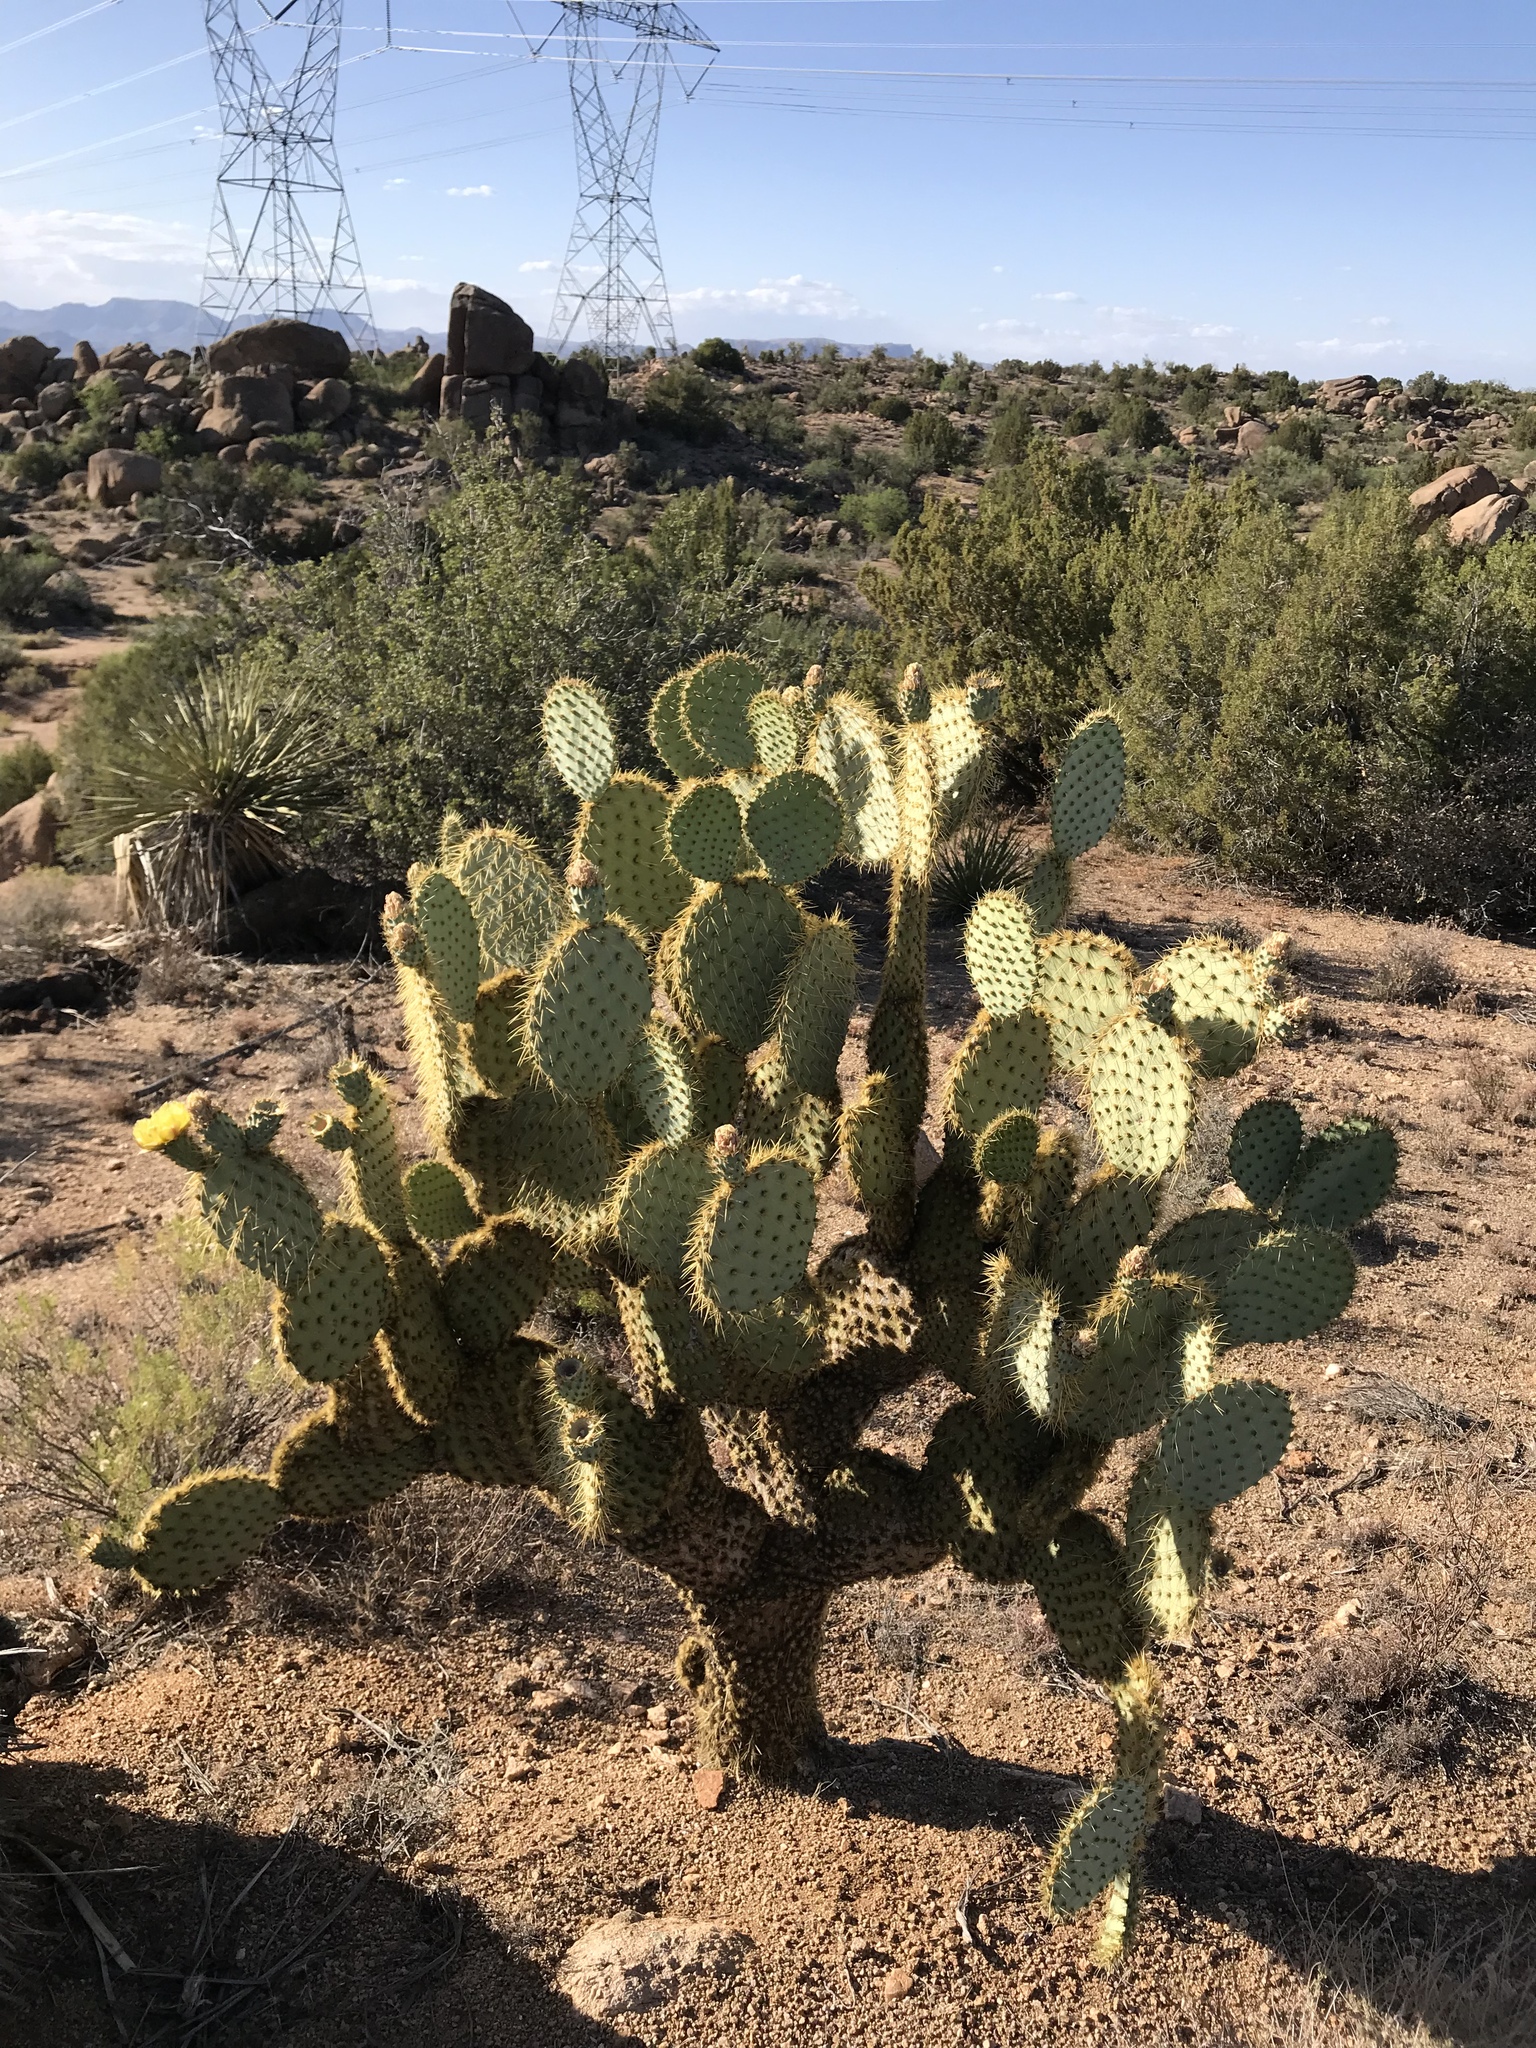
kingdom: Plantae
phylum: Tracheophyta
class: Magnoliopsida
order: Caryophyllales
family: Cactaceae
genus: Opuntia
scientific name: Opuntia chlorotica
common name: Dollar-joint prickly-pear
